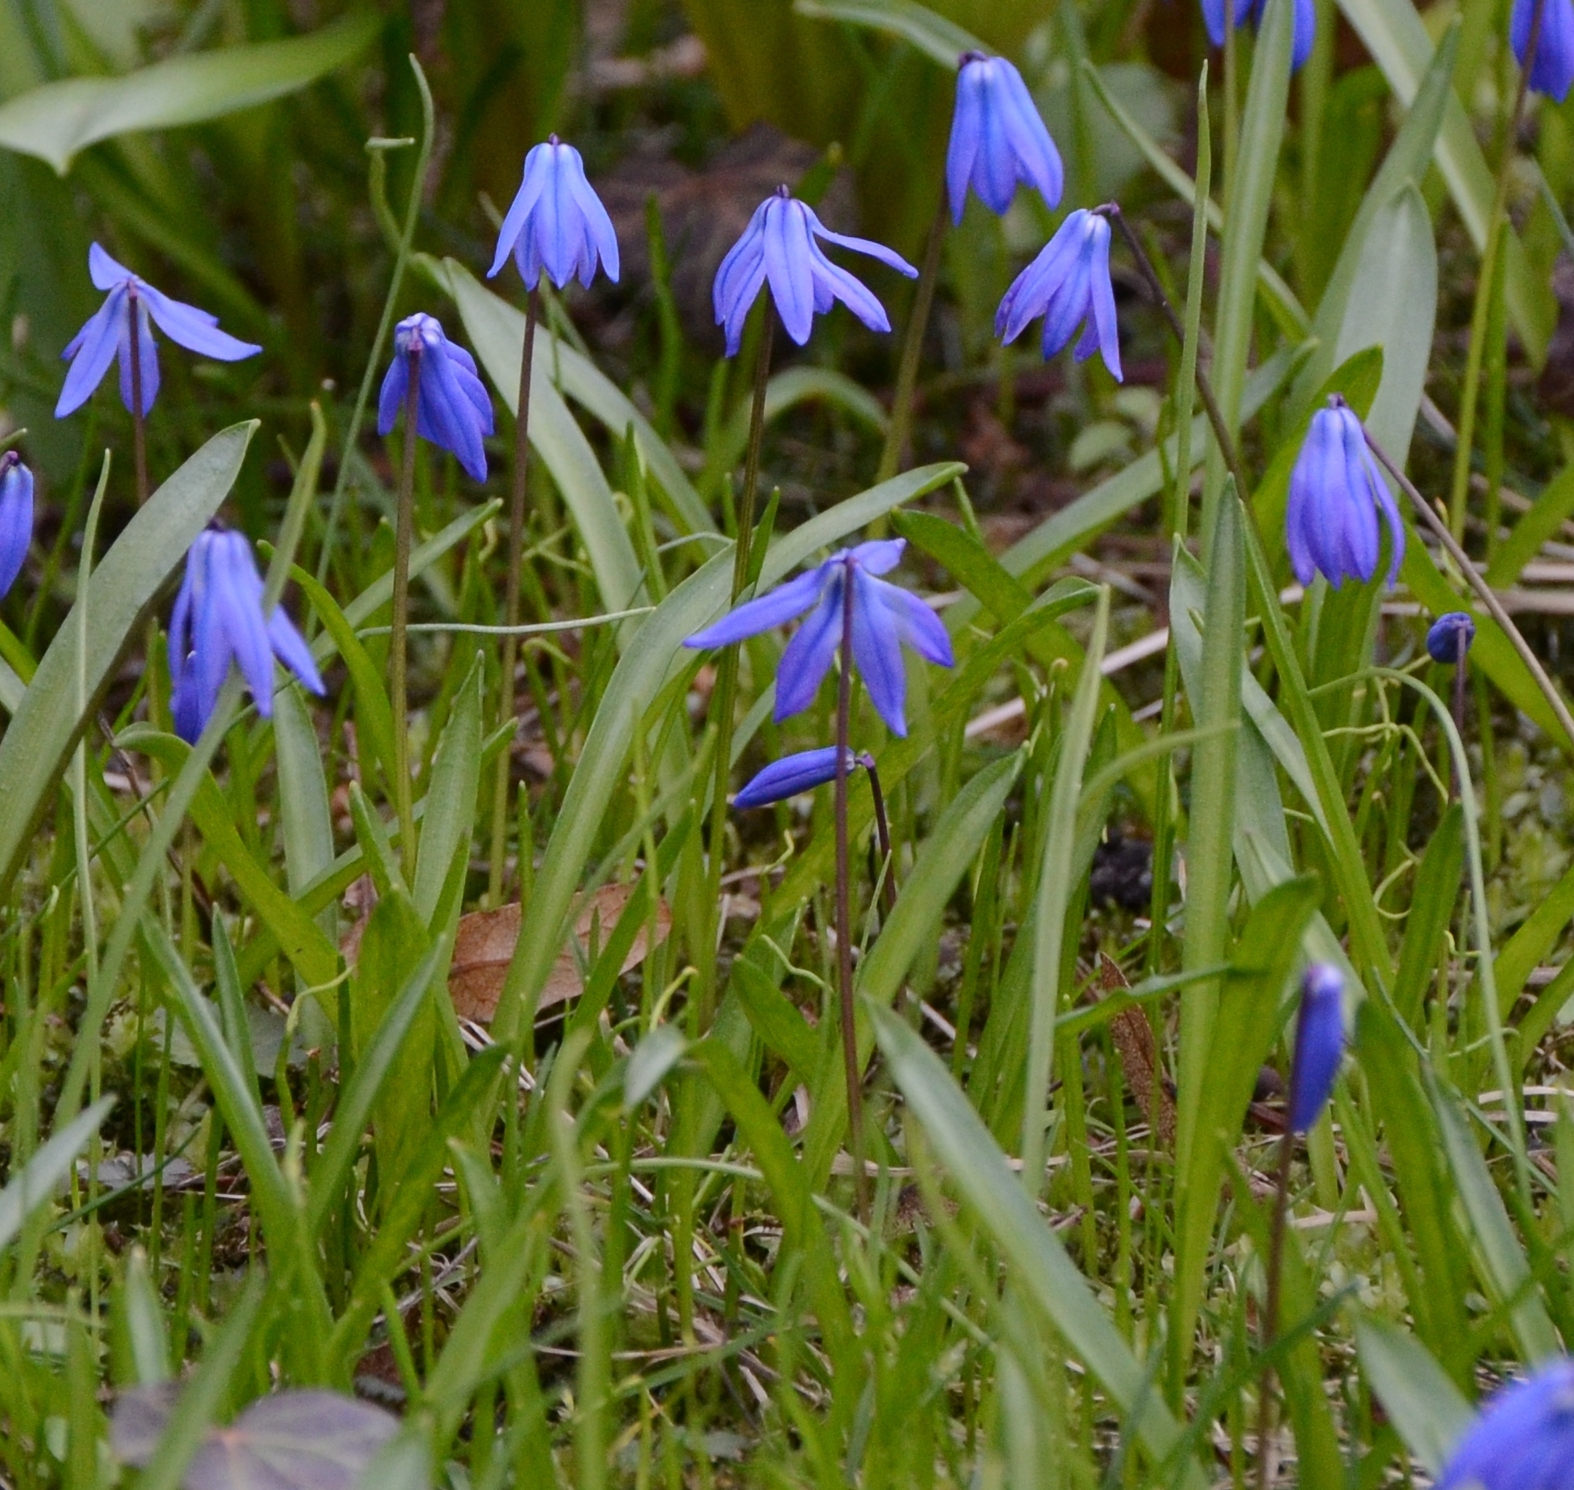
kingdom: Plantae
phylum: Tracheophyta
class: Liliopsida
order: Asparagales
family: Asparagaceae
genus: Scilla
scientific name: Scilla siberica
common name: Siberian squill
